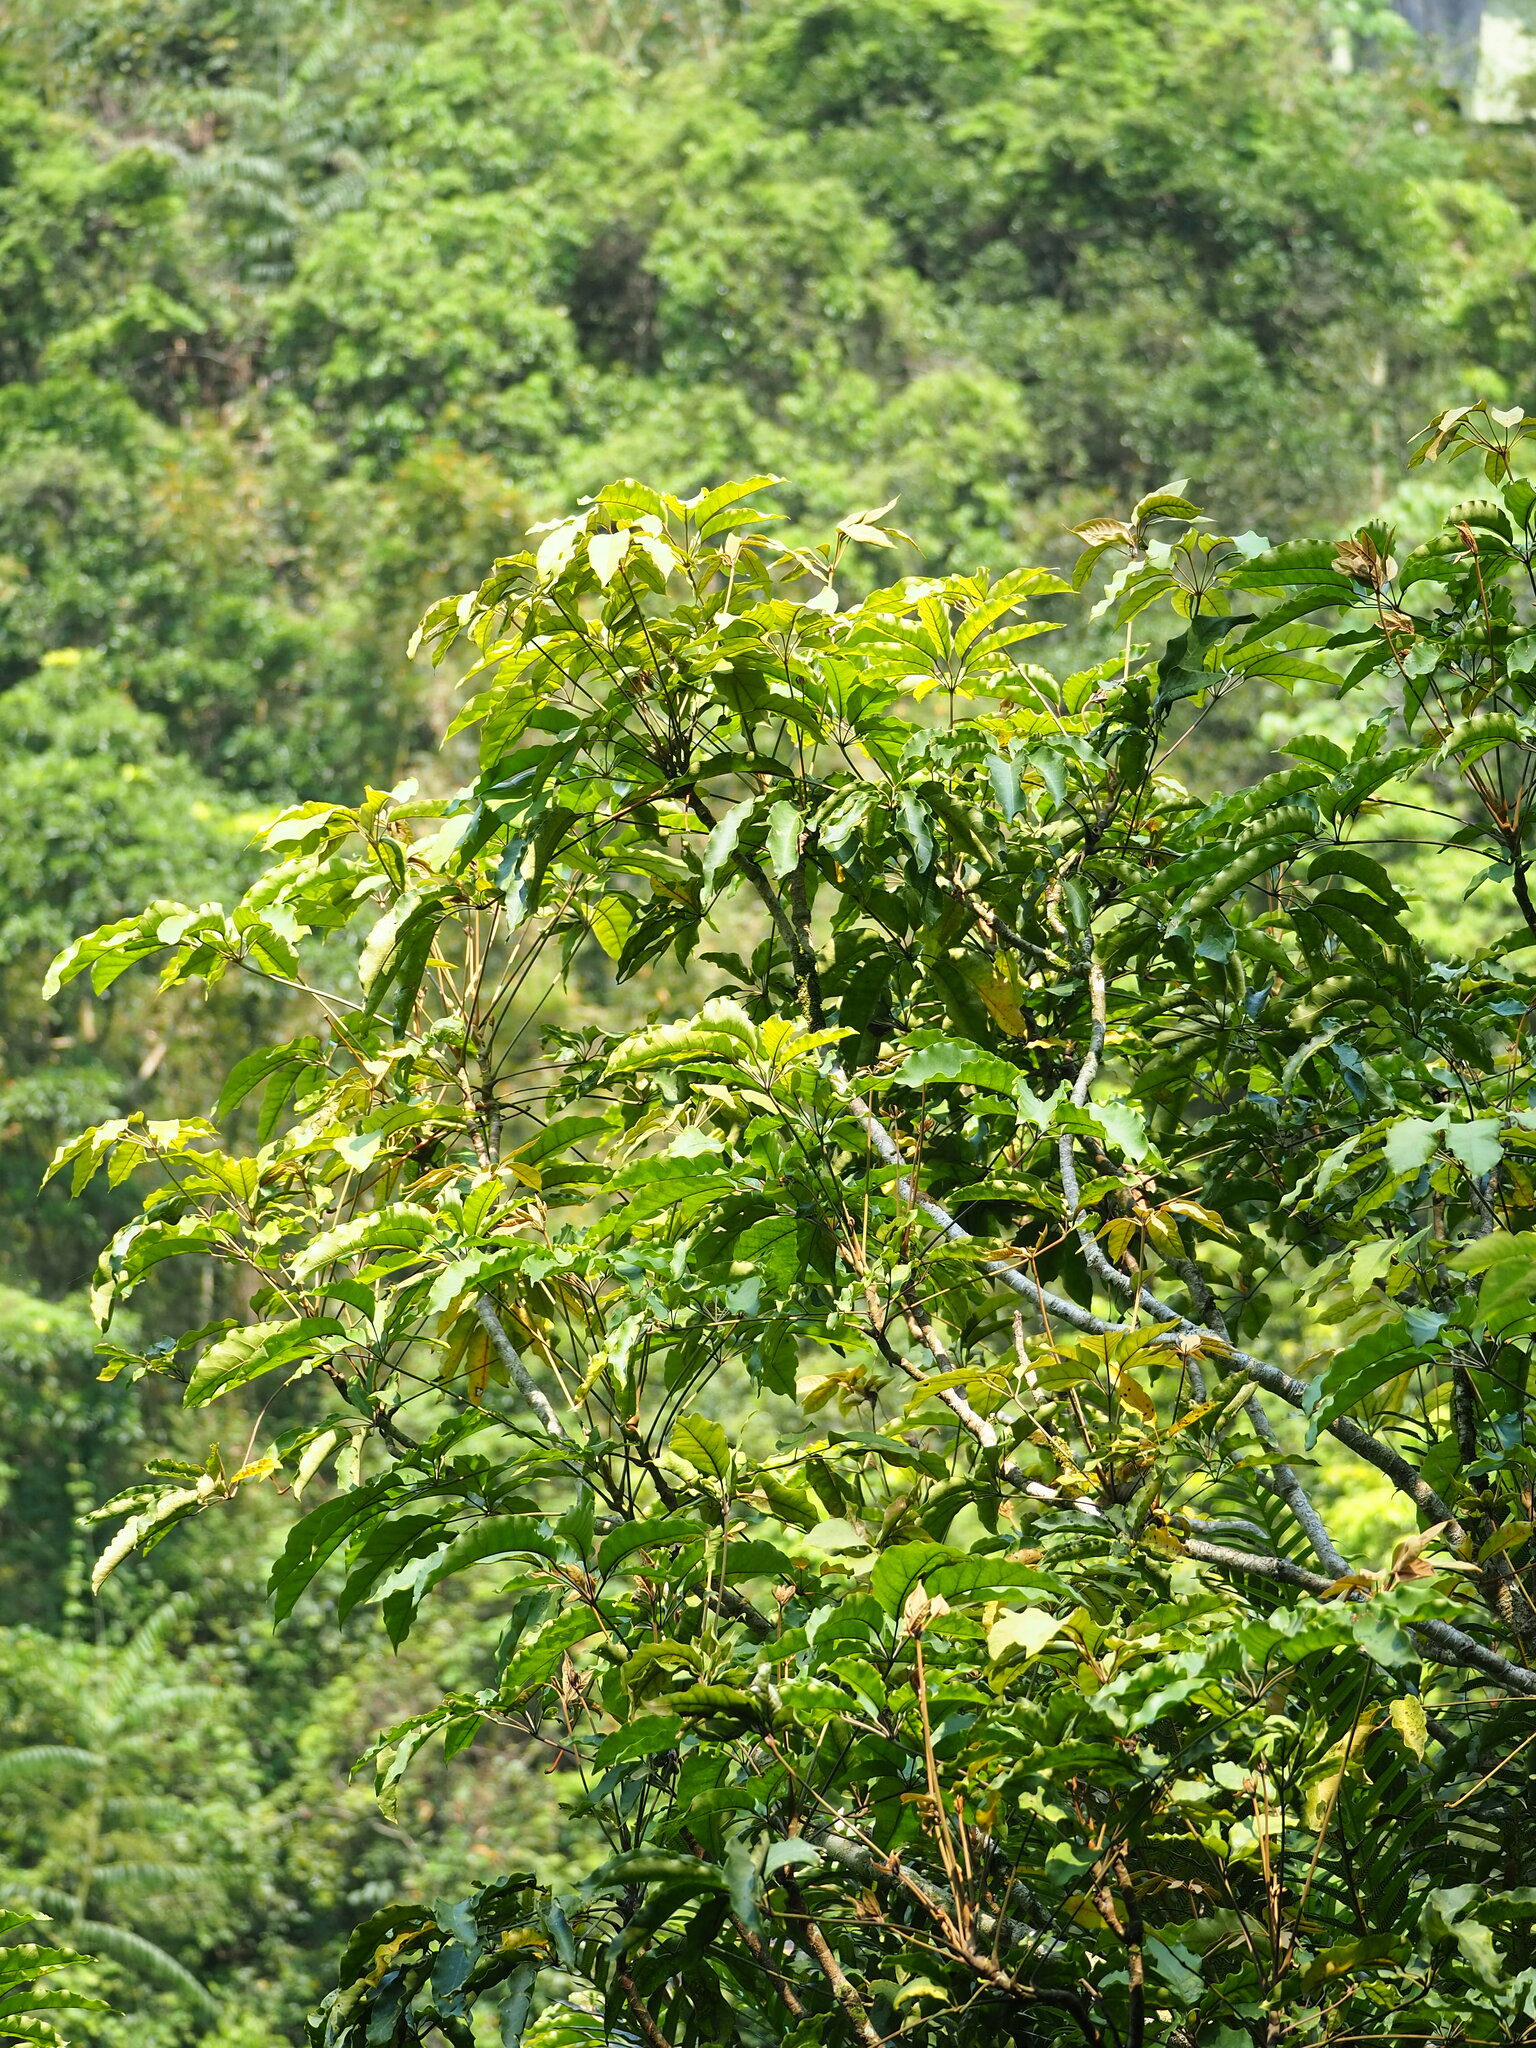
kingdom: Plantae
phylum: Tracheophyta
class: Magnoliopsida
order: Apiales
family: Araliaceae
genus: Heptapleurum
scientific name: Heptapleurum heptaphyllum
